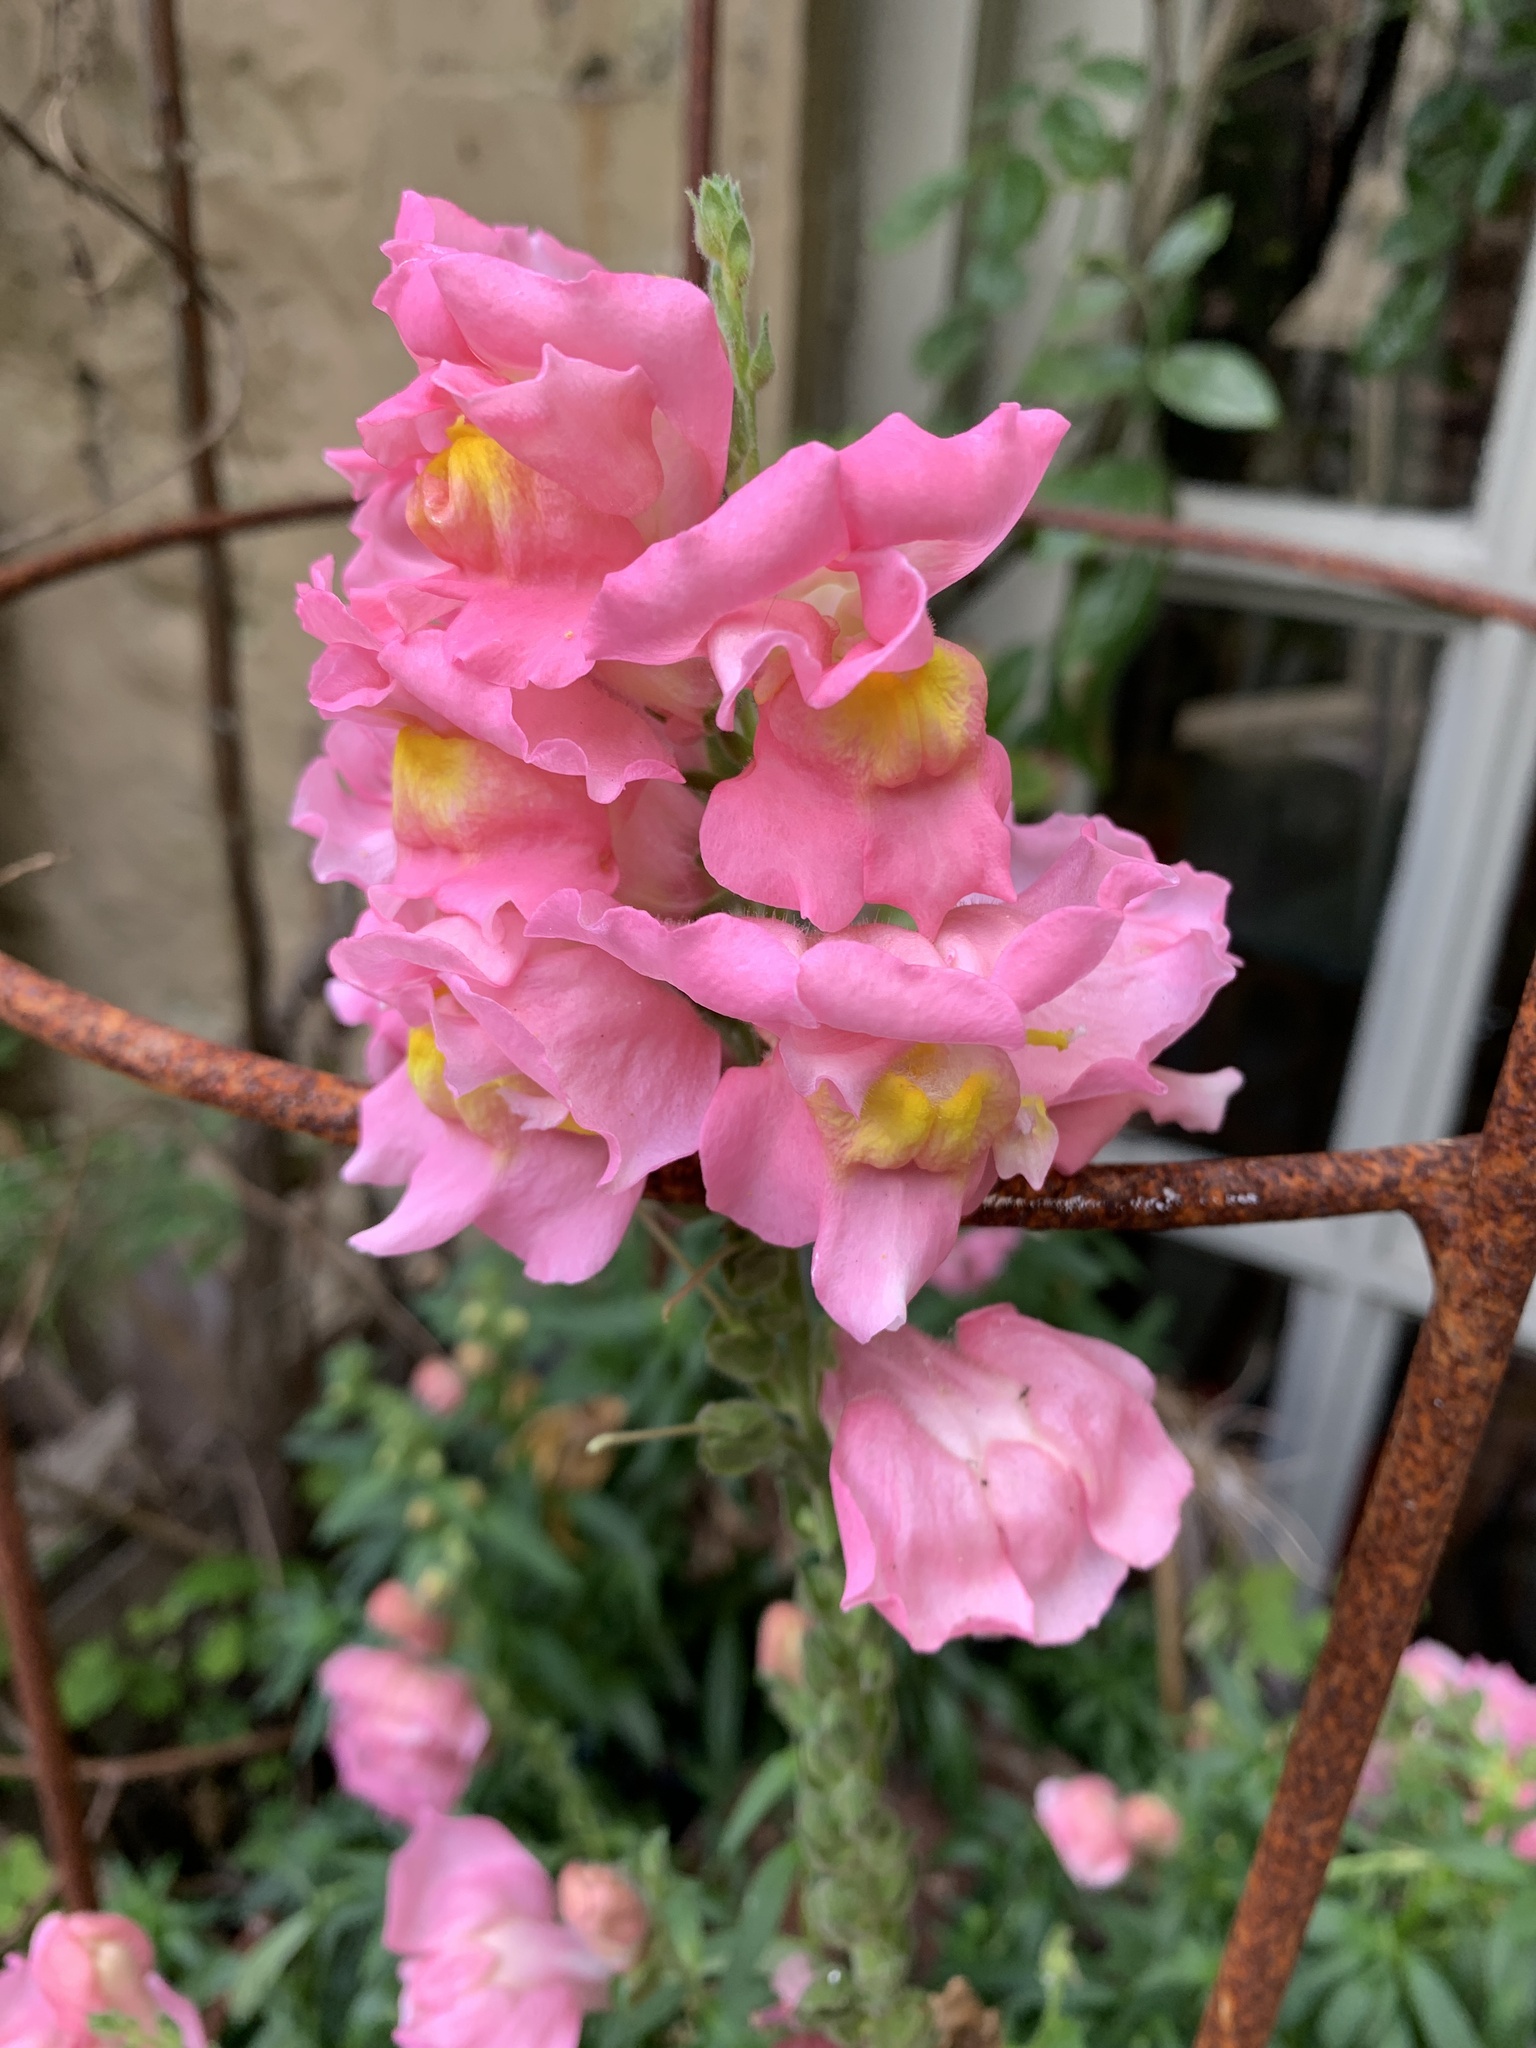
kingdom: Plantae
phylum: Tracheophyta
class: Magnoliopsida
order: Lamiales
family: Plantaginaceae
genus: Antirrhinum
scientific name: Antirrhinum majus
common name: Snapdragon
